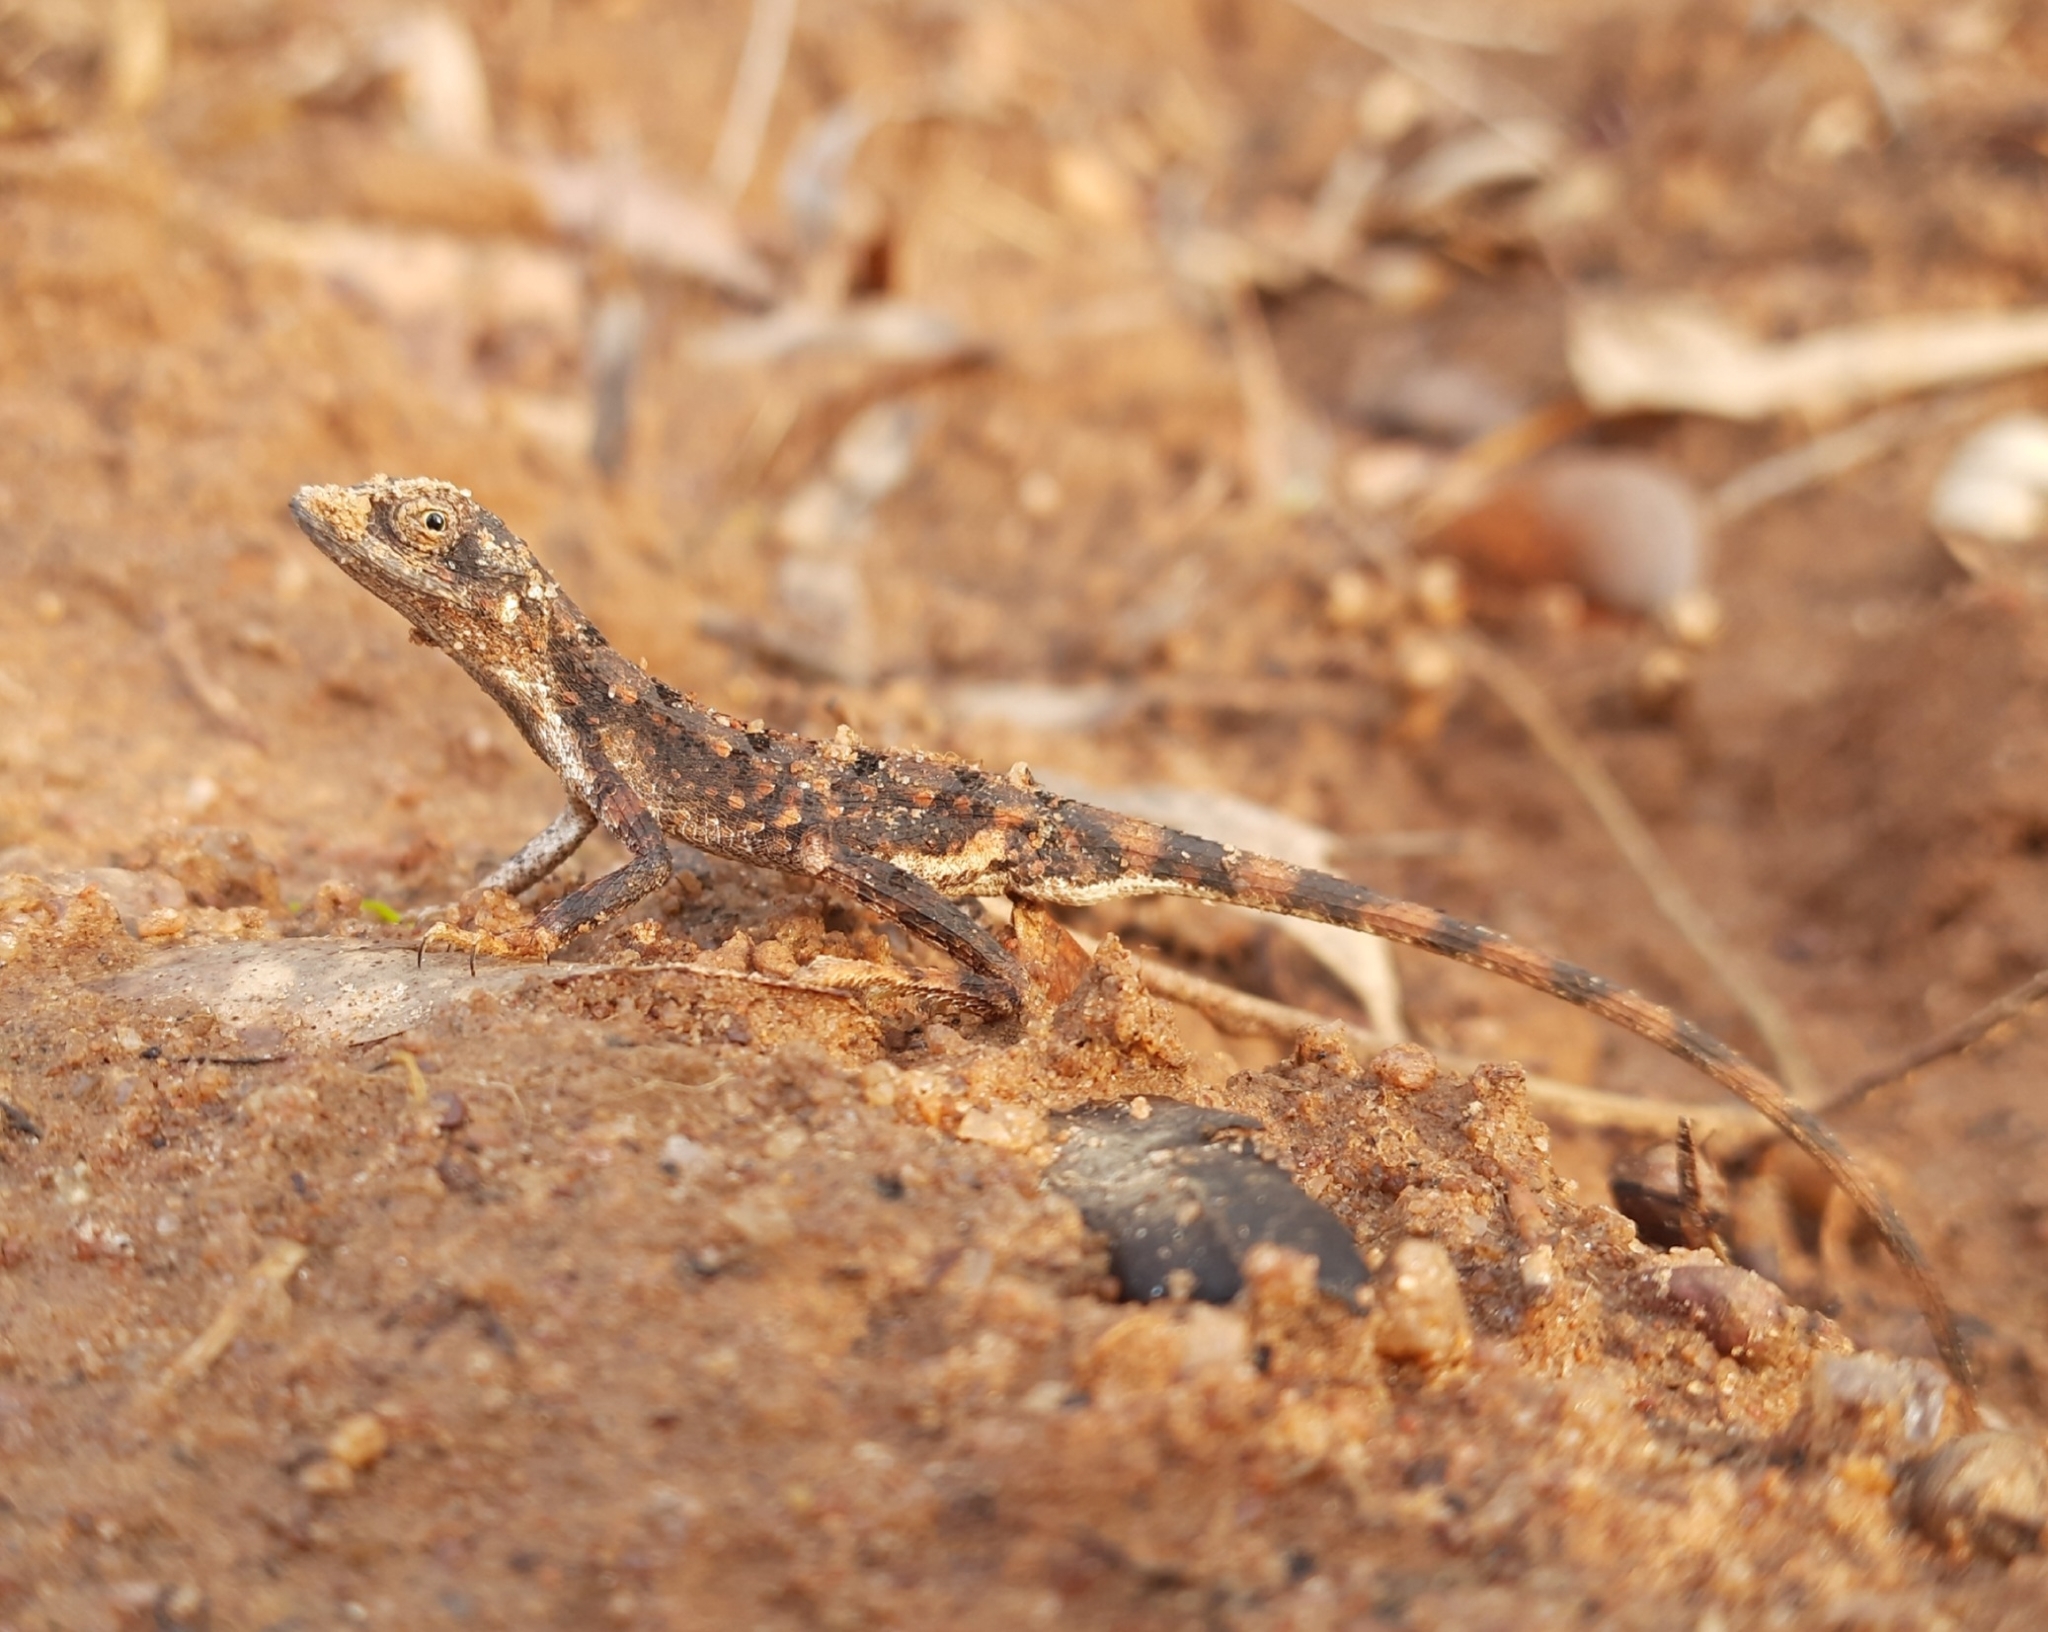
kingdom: Animalia
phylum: Chordata
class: Squamata
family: Agamidae
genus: Sitana
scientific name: Sitana ponticeriana
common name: Pondichéry fan throated lizard
